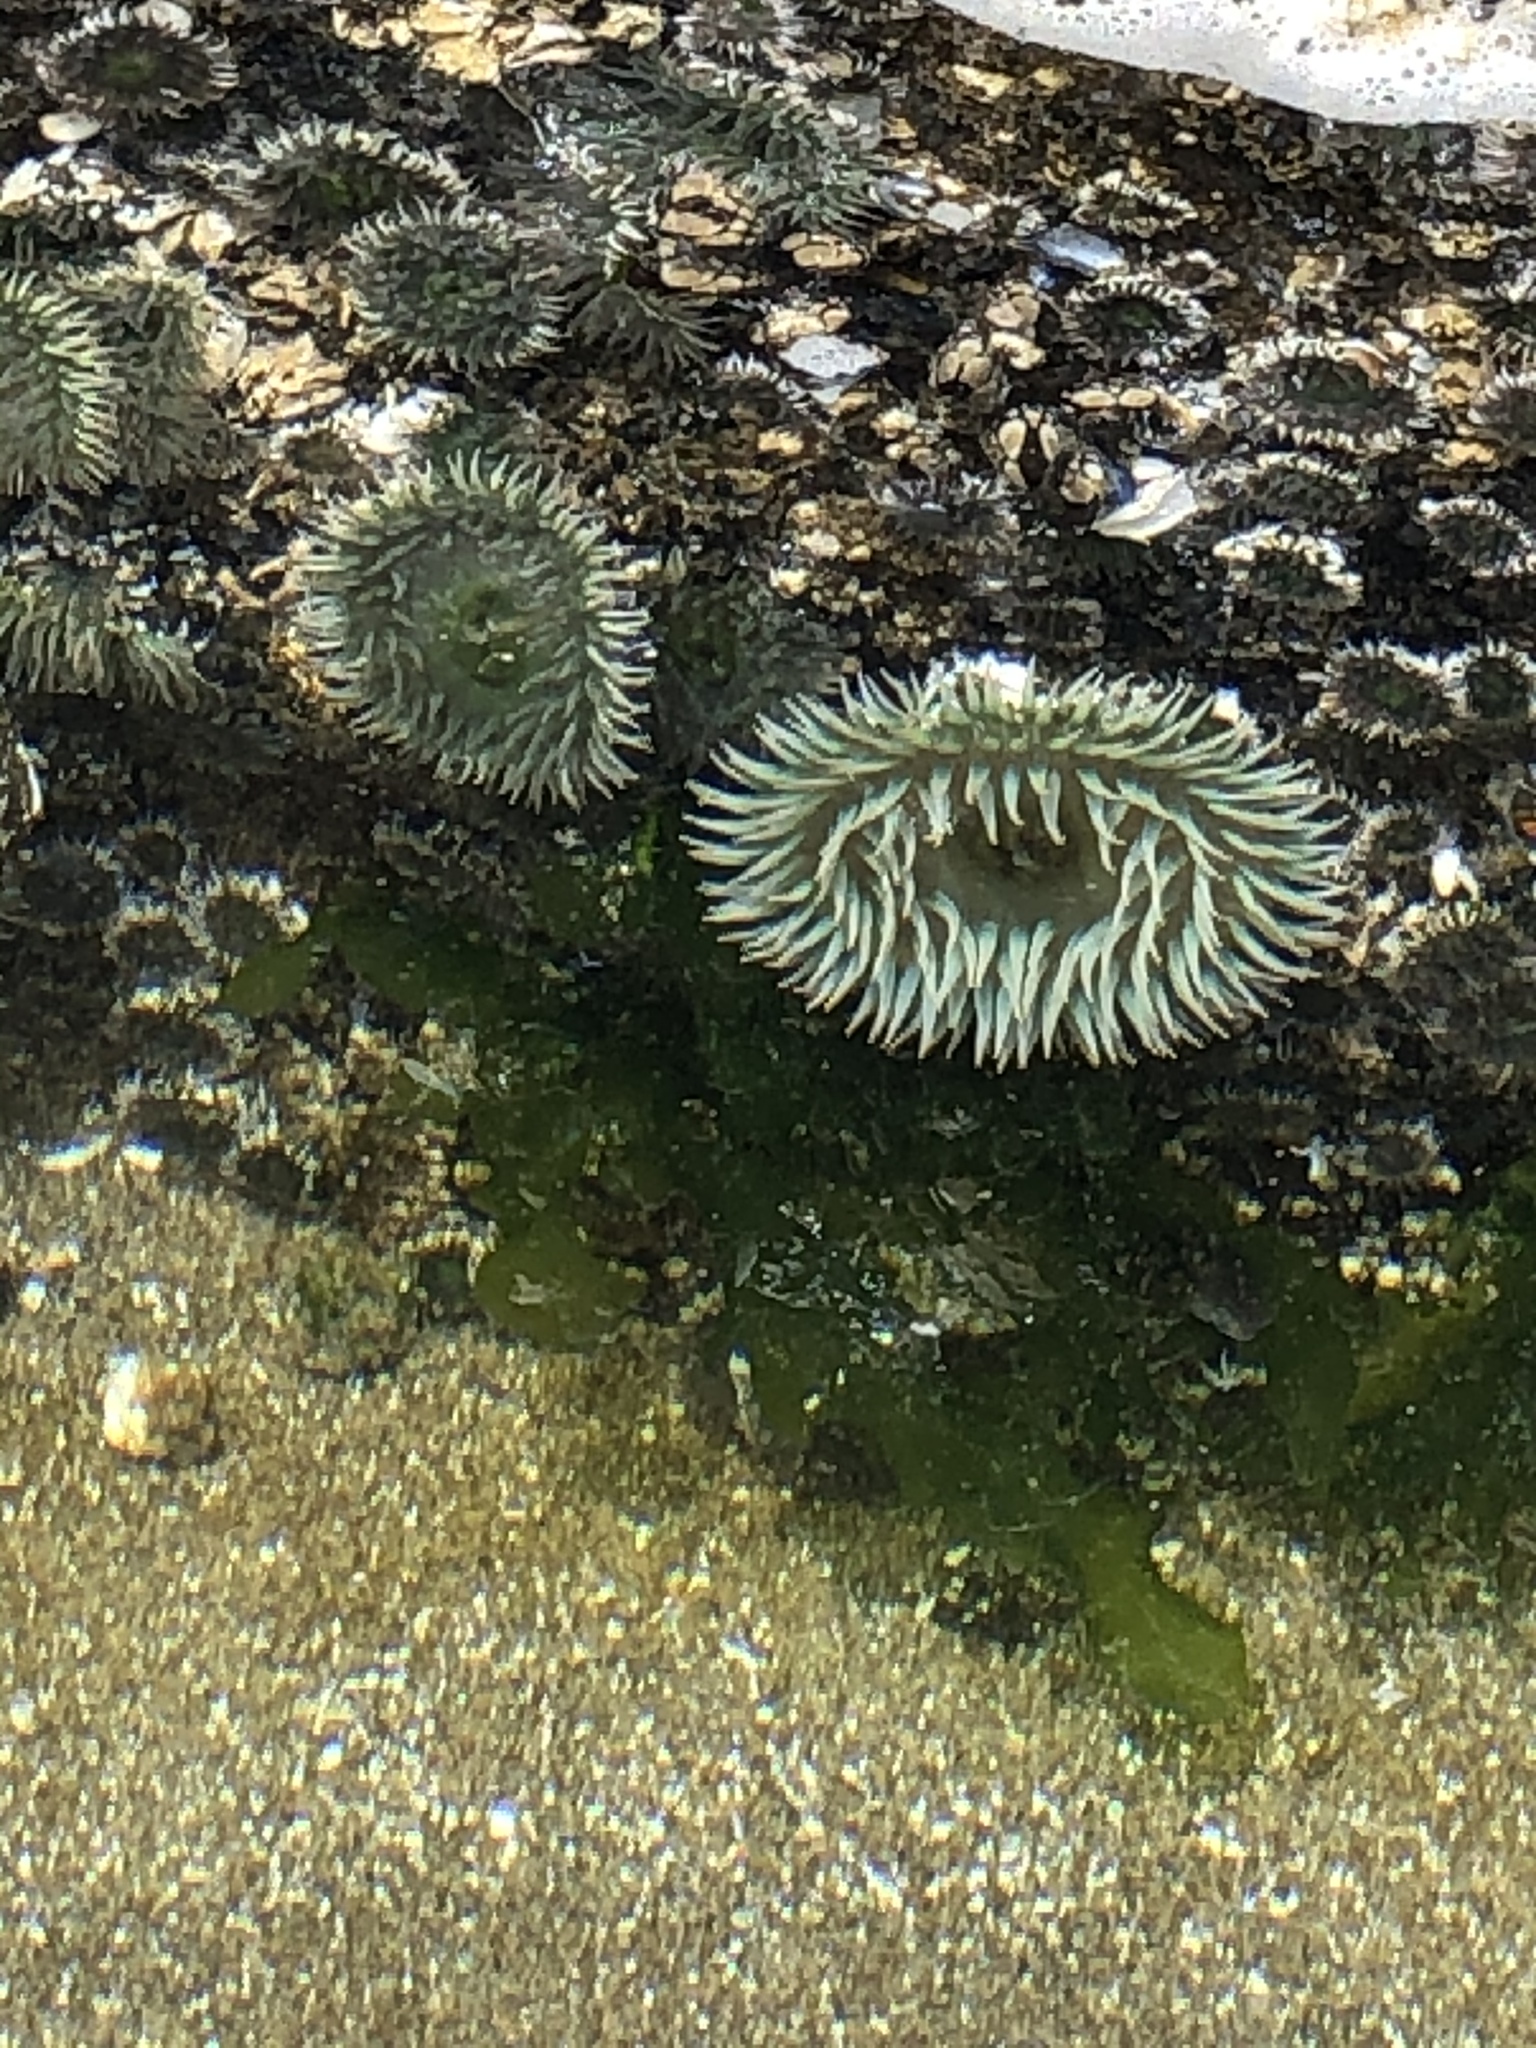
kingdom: Animalia
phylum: Cnidaria
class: Anthozoa
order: Actiniaria
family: Actiniidae
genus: Anthopleura
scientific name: Anthopleura xanthogrammica
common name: Giant green anemone
